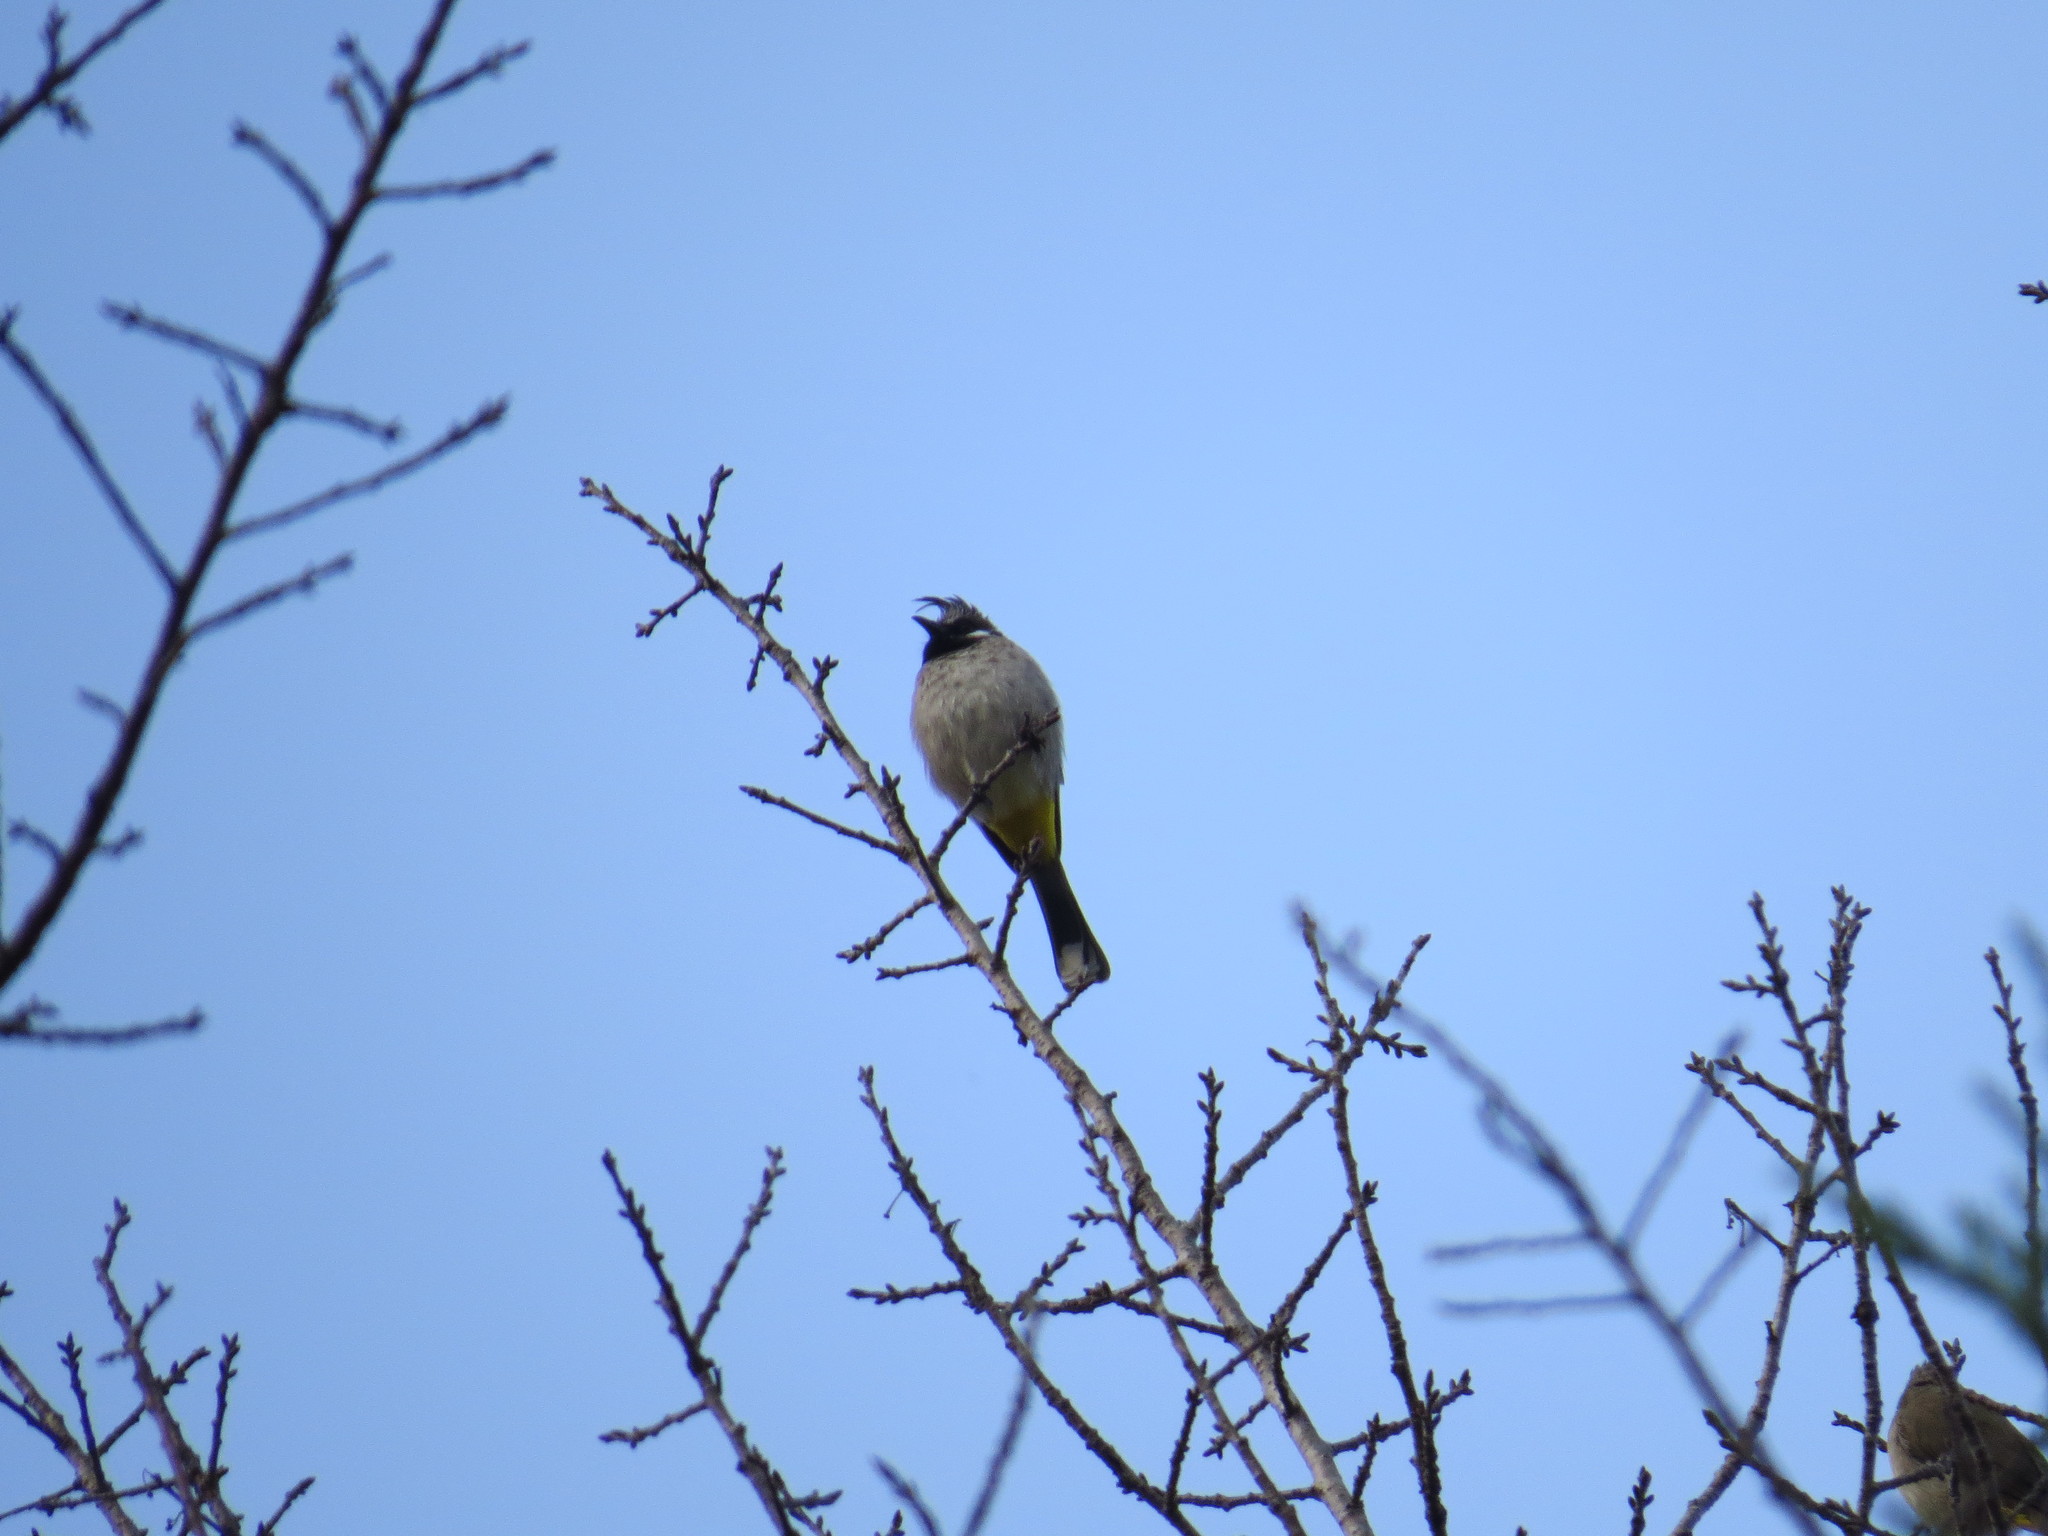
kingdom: Animalia
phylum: Chordata
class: Aves
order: Passeriformes
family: Pycnonotidae
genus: Pycnonotus
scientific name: Pycnonotus leucogenys
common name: Himalayan bulbul
